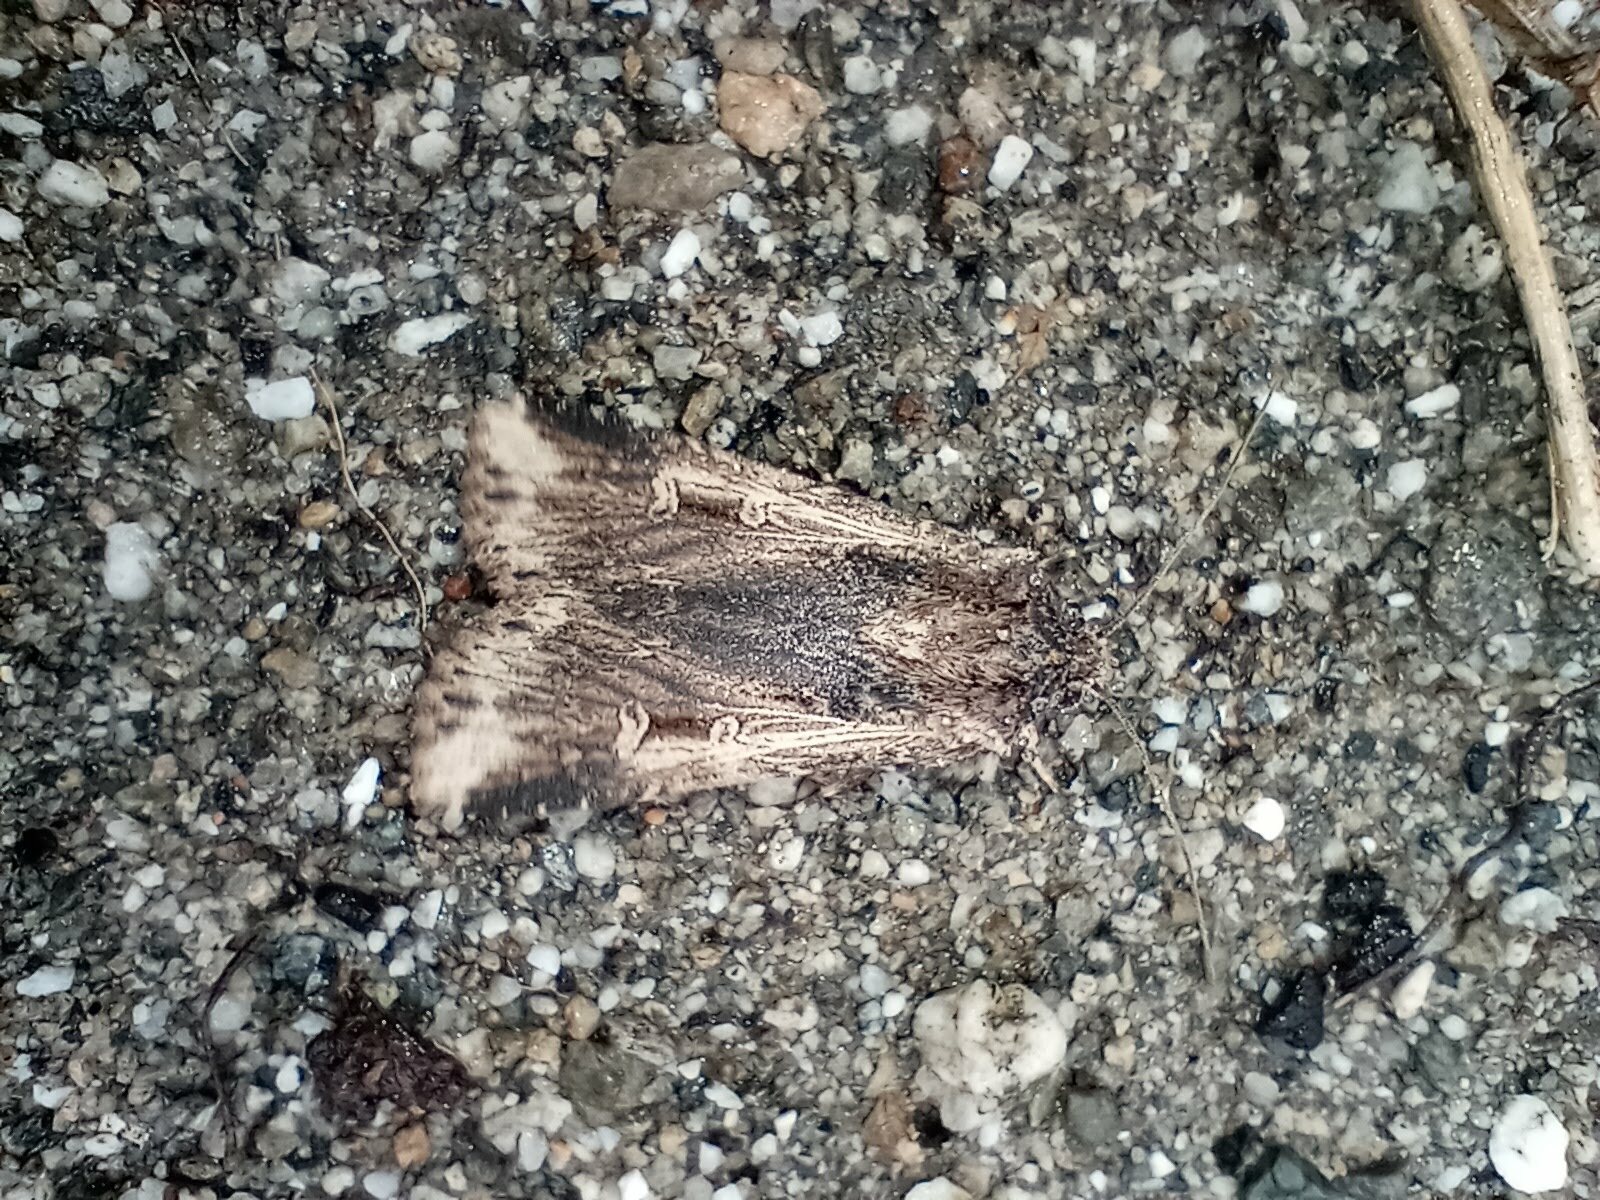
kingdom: Animalia
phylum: Arthropoda
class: Insecta
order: Lepidoptera
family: Noctuidae
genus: Feltia
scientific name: Feltia subterranea
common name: Granulate cutworm
